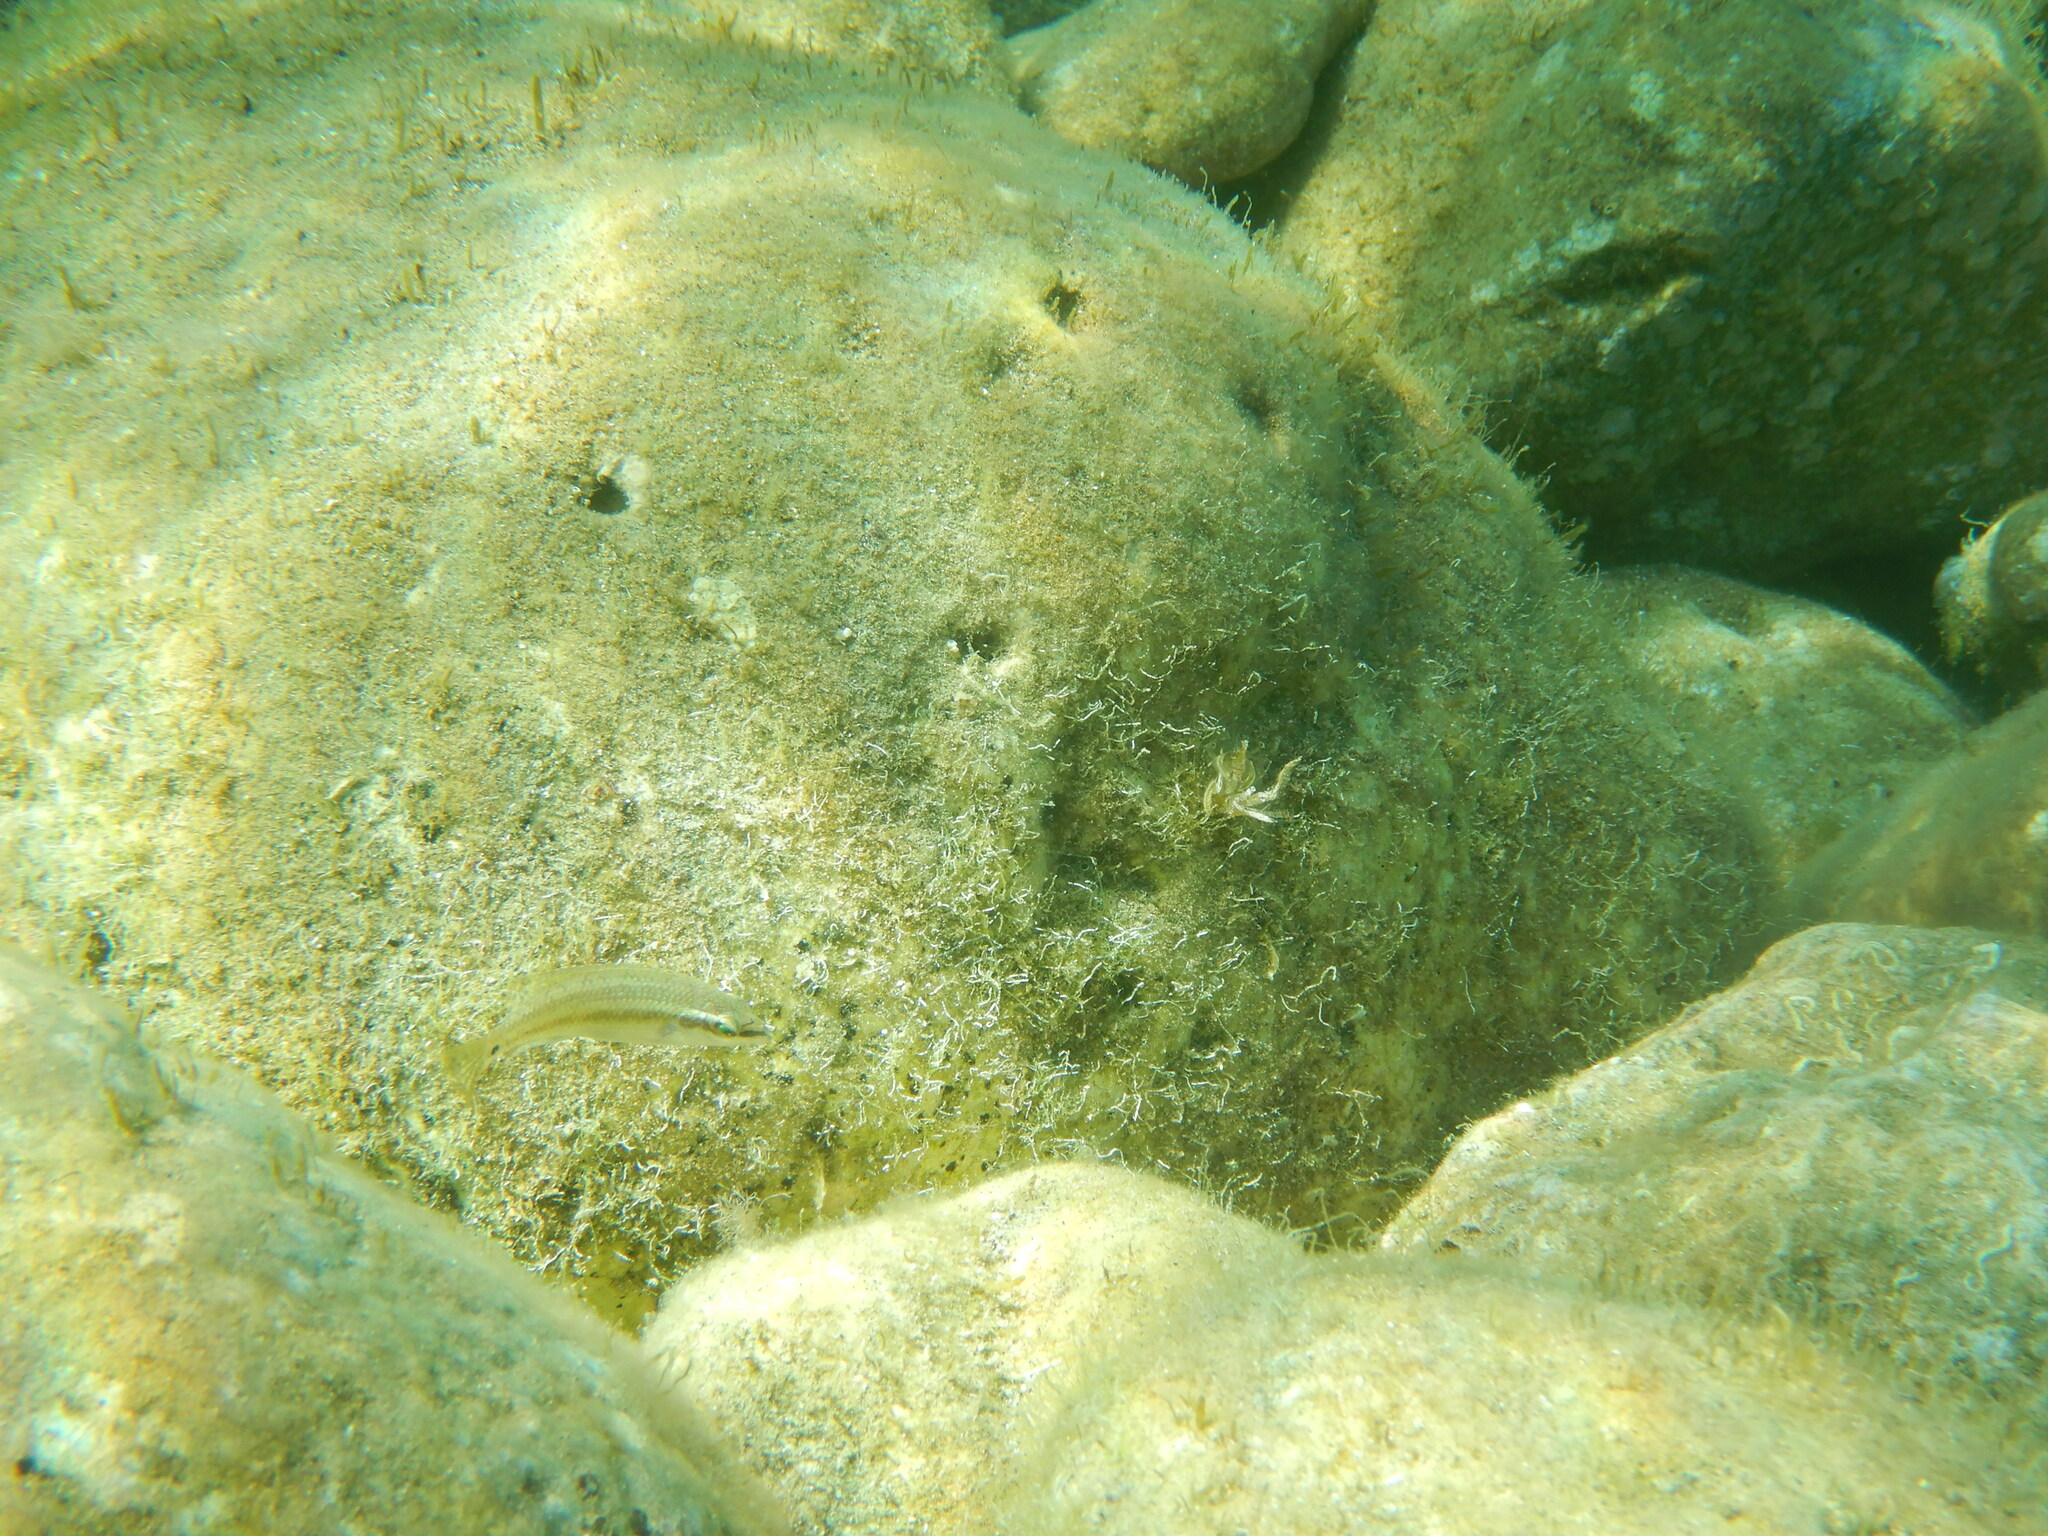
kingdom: Animalia
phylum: Chordata
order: Perciformes
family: Labridae
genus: Symphodus
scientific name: Symphodus tinca
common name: Peacock wrasse
